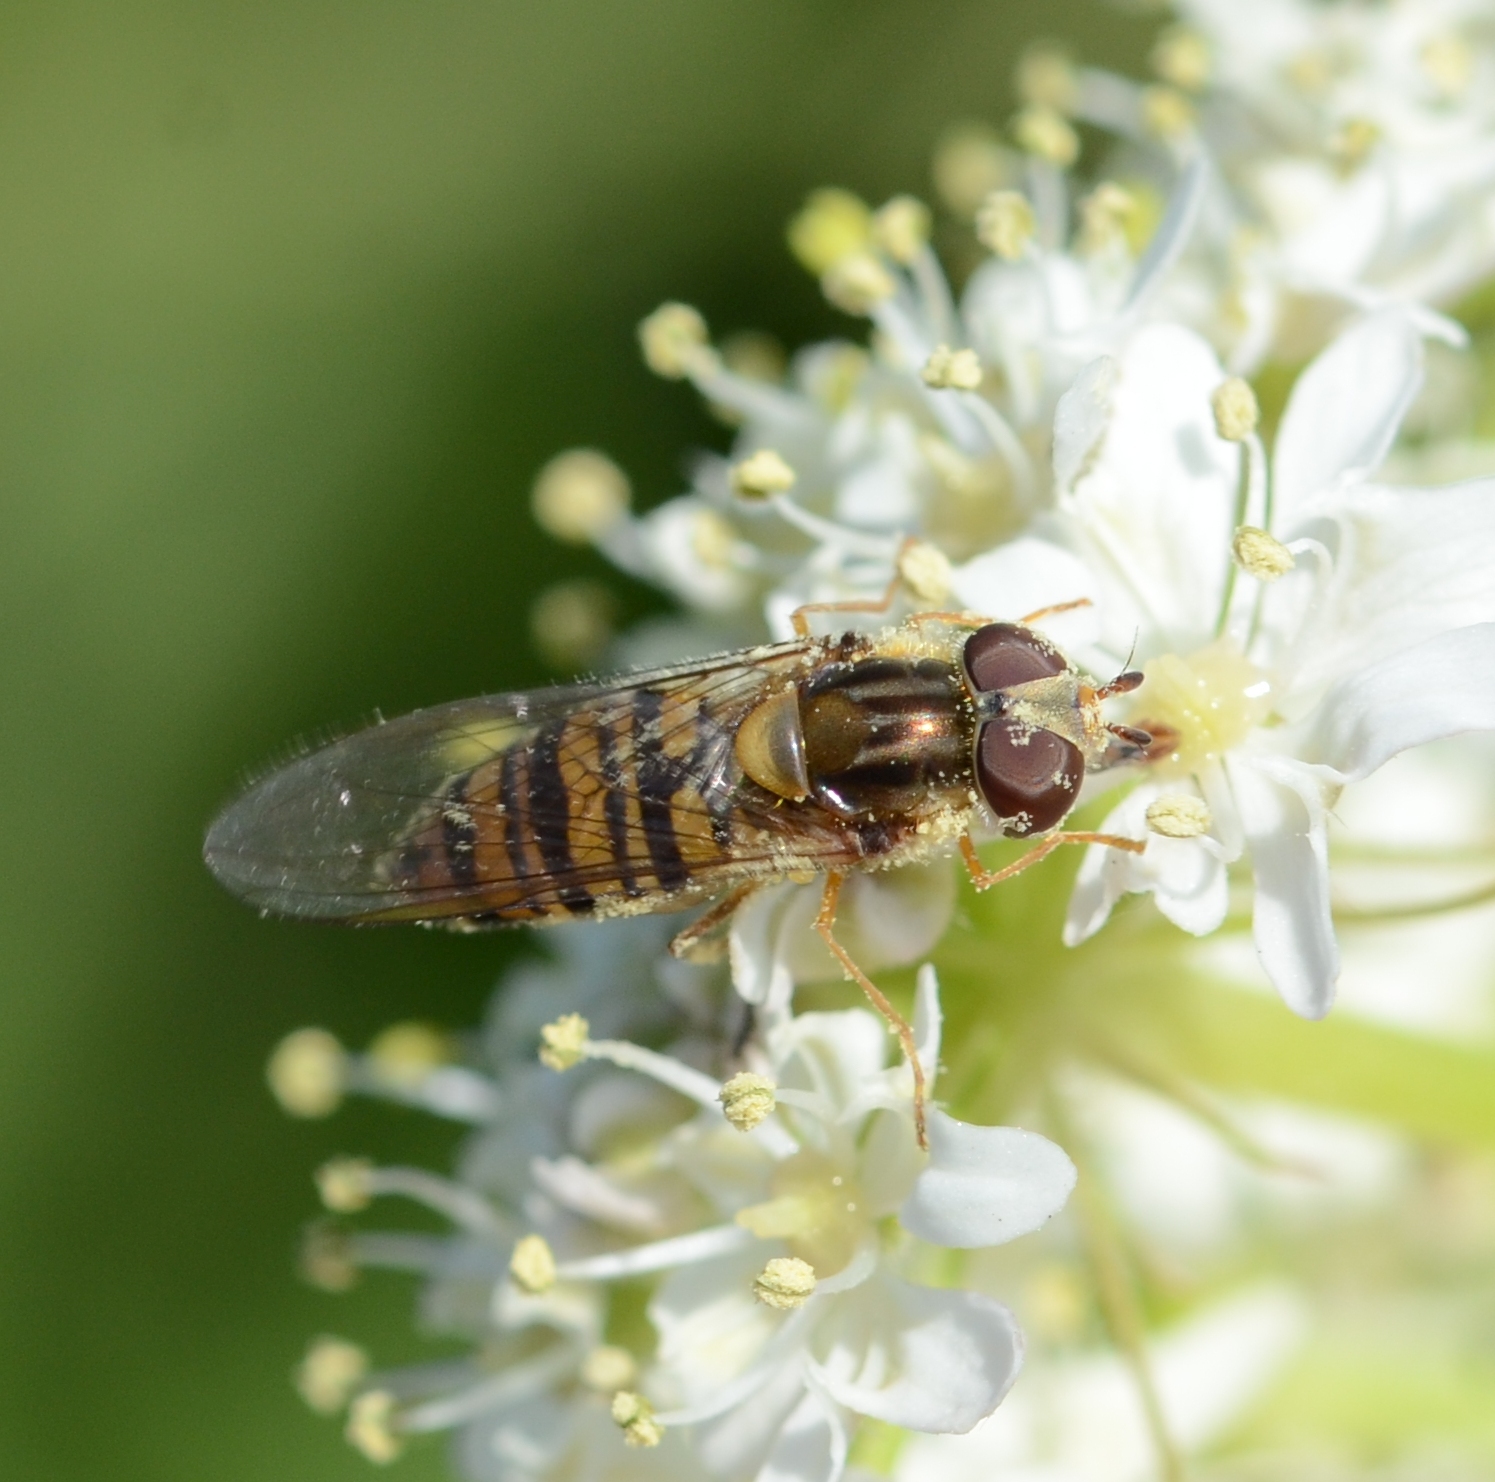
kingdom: Animalia
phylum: Arthropoda
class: Insecta
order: Diptera
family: Syrphidae
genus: Episyrphus
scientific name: Episyrphus balteatus
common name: Marmalade hoverfly
